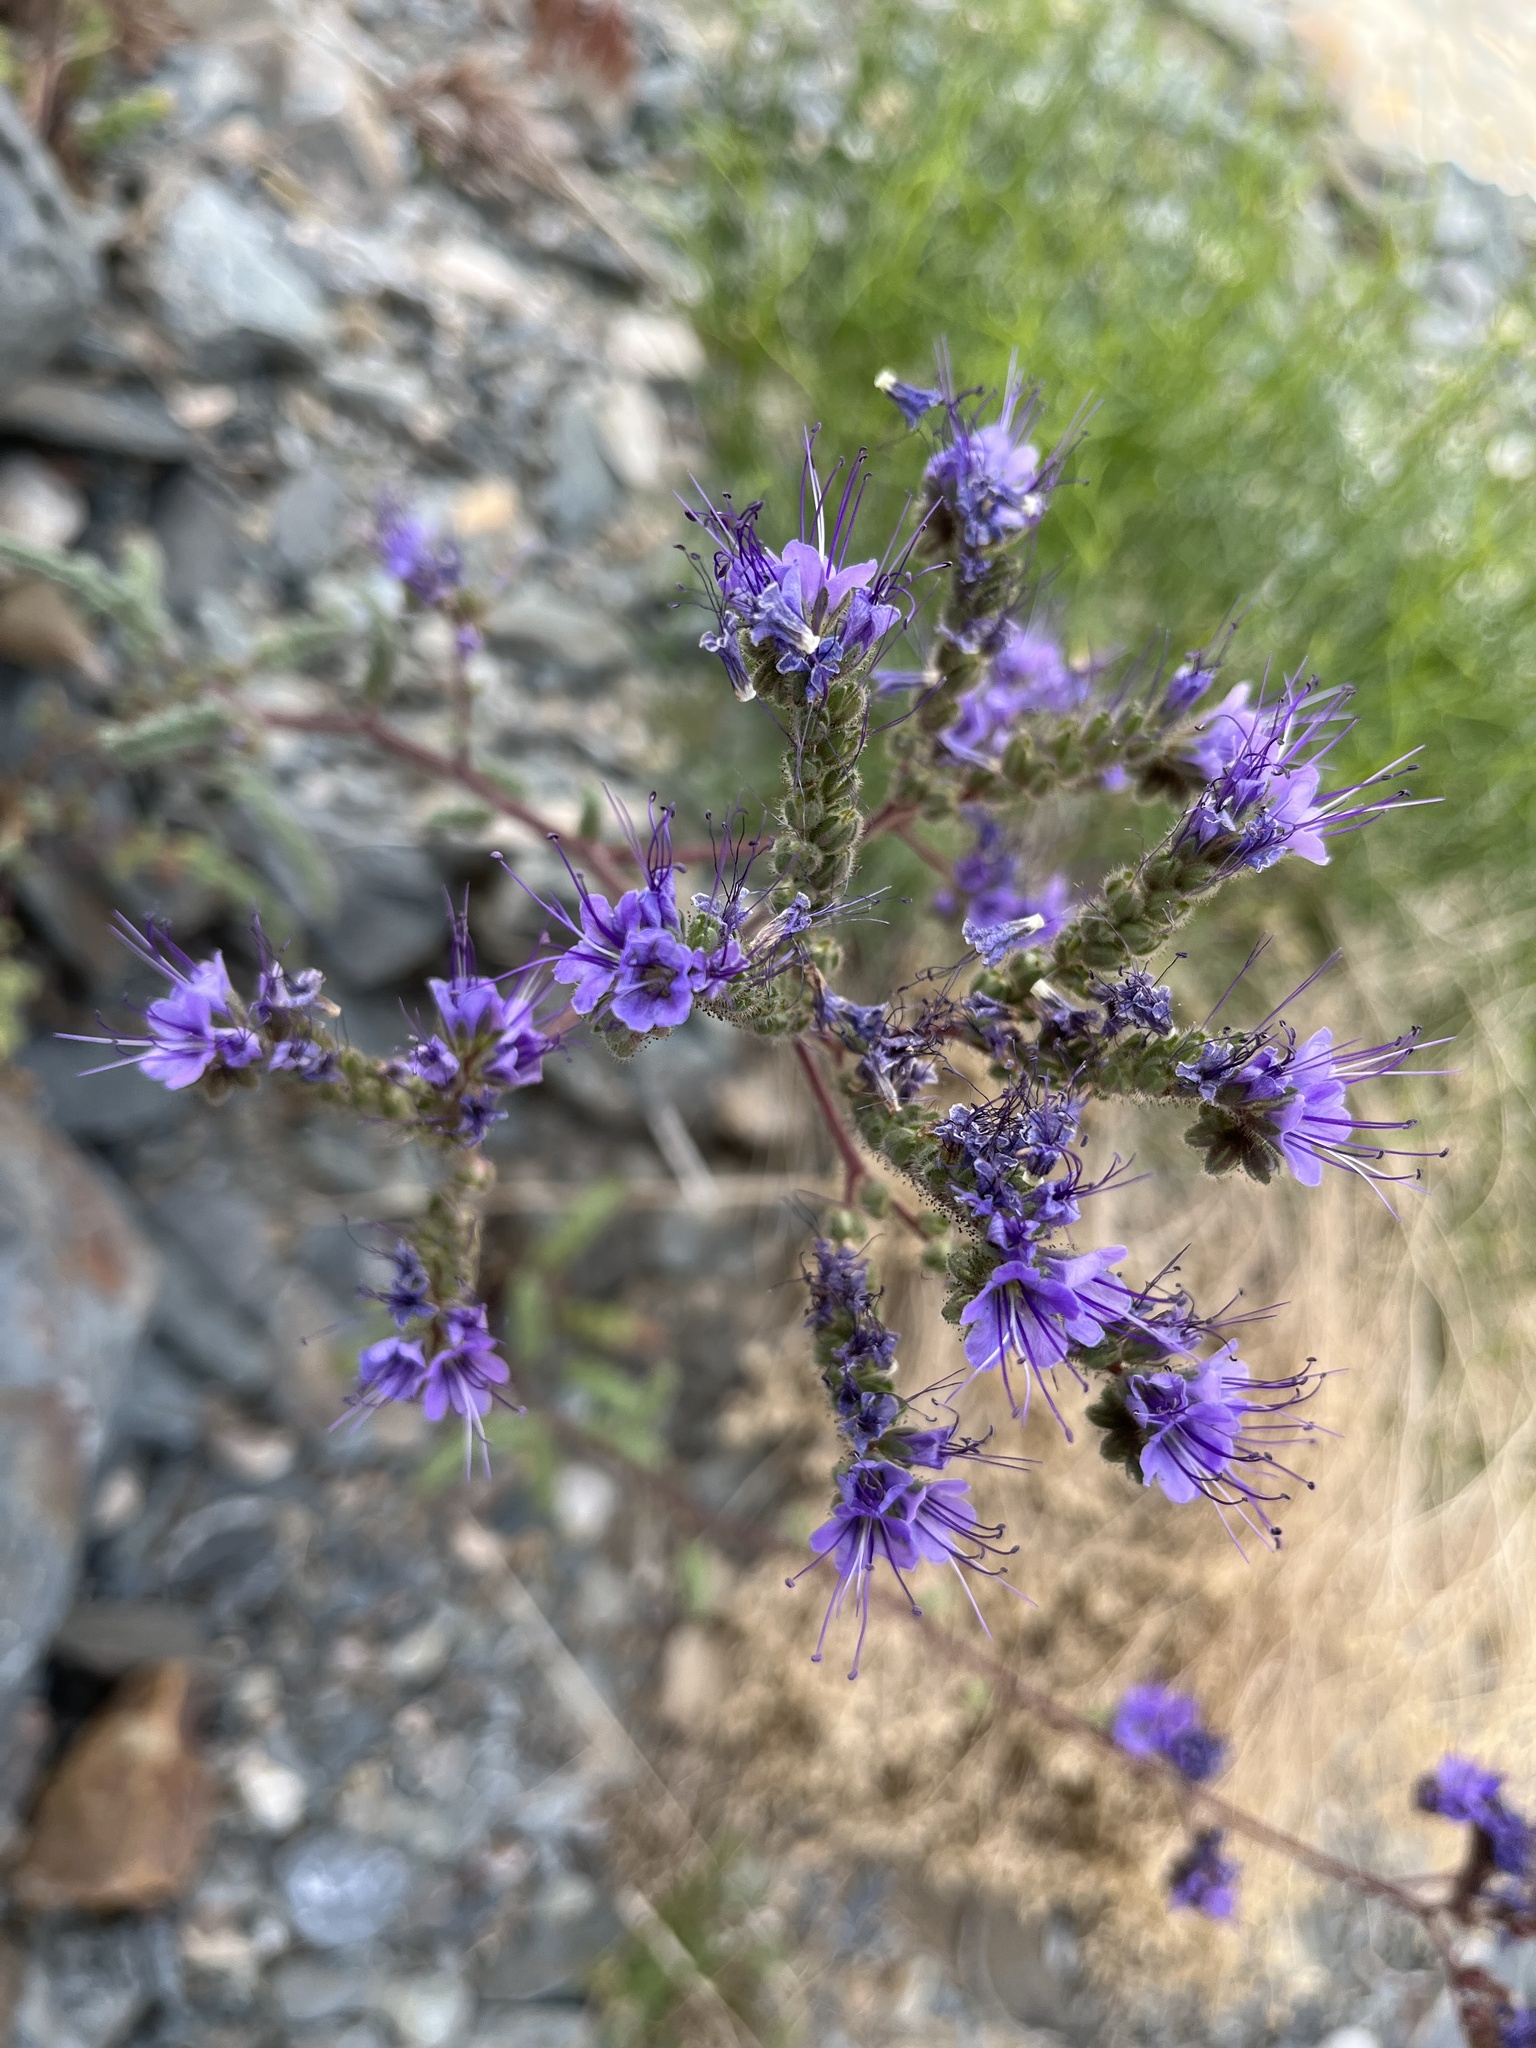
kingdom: Plantae
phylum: Tracheophyta
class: Magnoliopsida
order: Boraginales
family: Hydrophyllaceae
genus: Phacelia
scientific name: Phacelia crenulata
